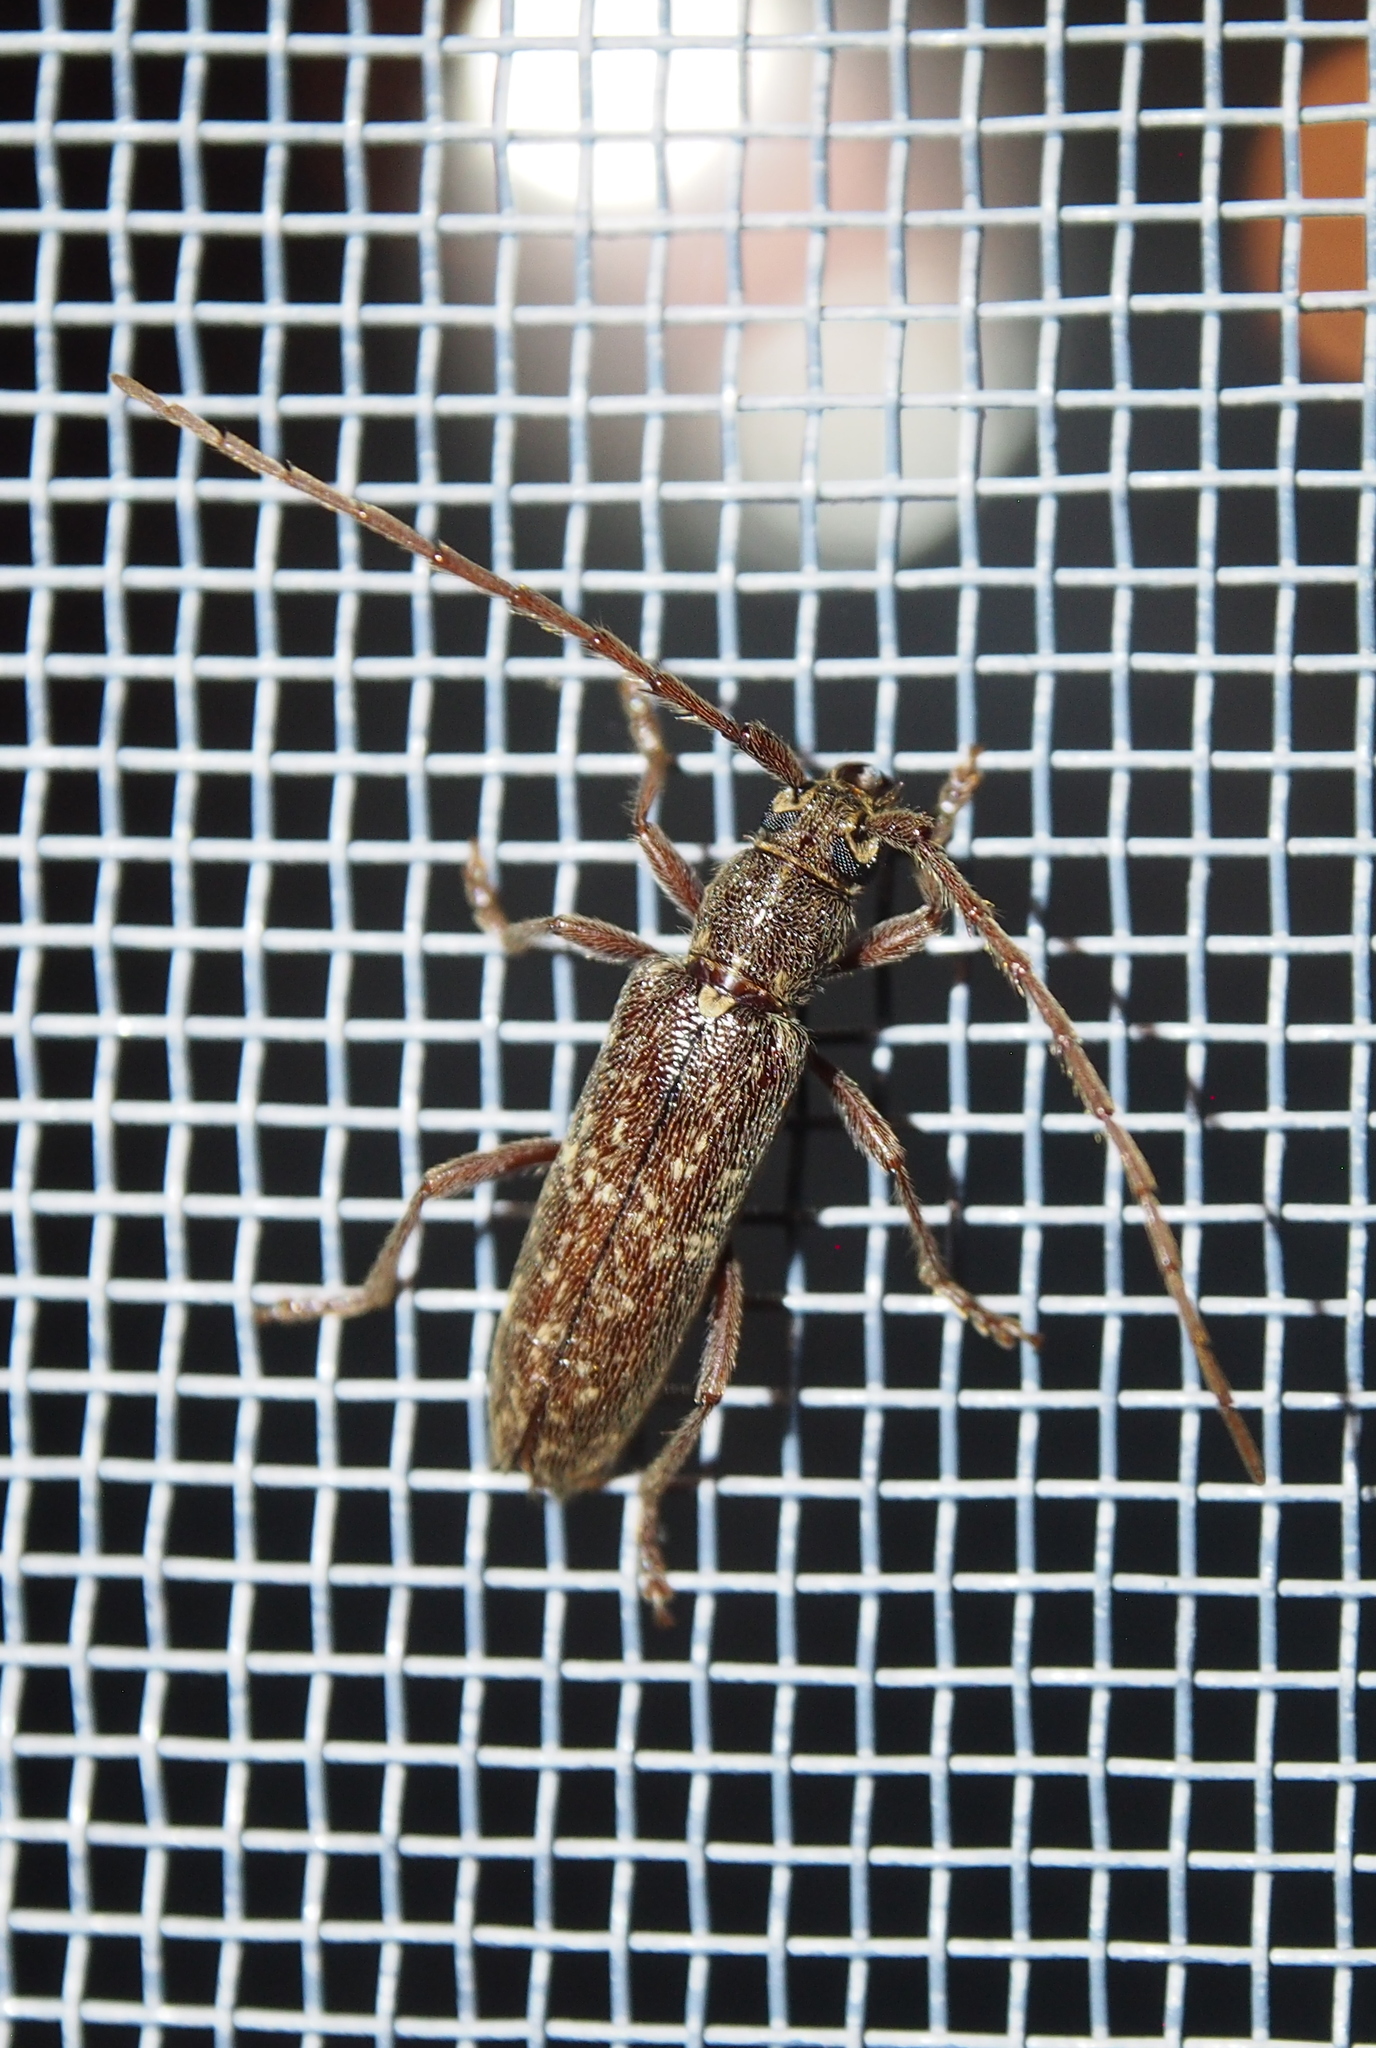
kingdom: Animalia
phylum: Arthropoda
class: Insecta
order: Coleoptera
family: Cerambycidae
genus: Anelaphus
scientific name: Anelaphus villosus
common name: Twig pruner
